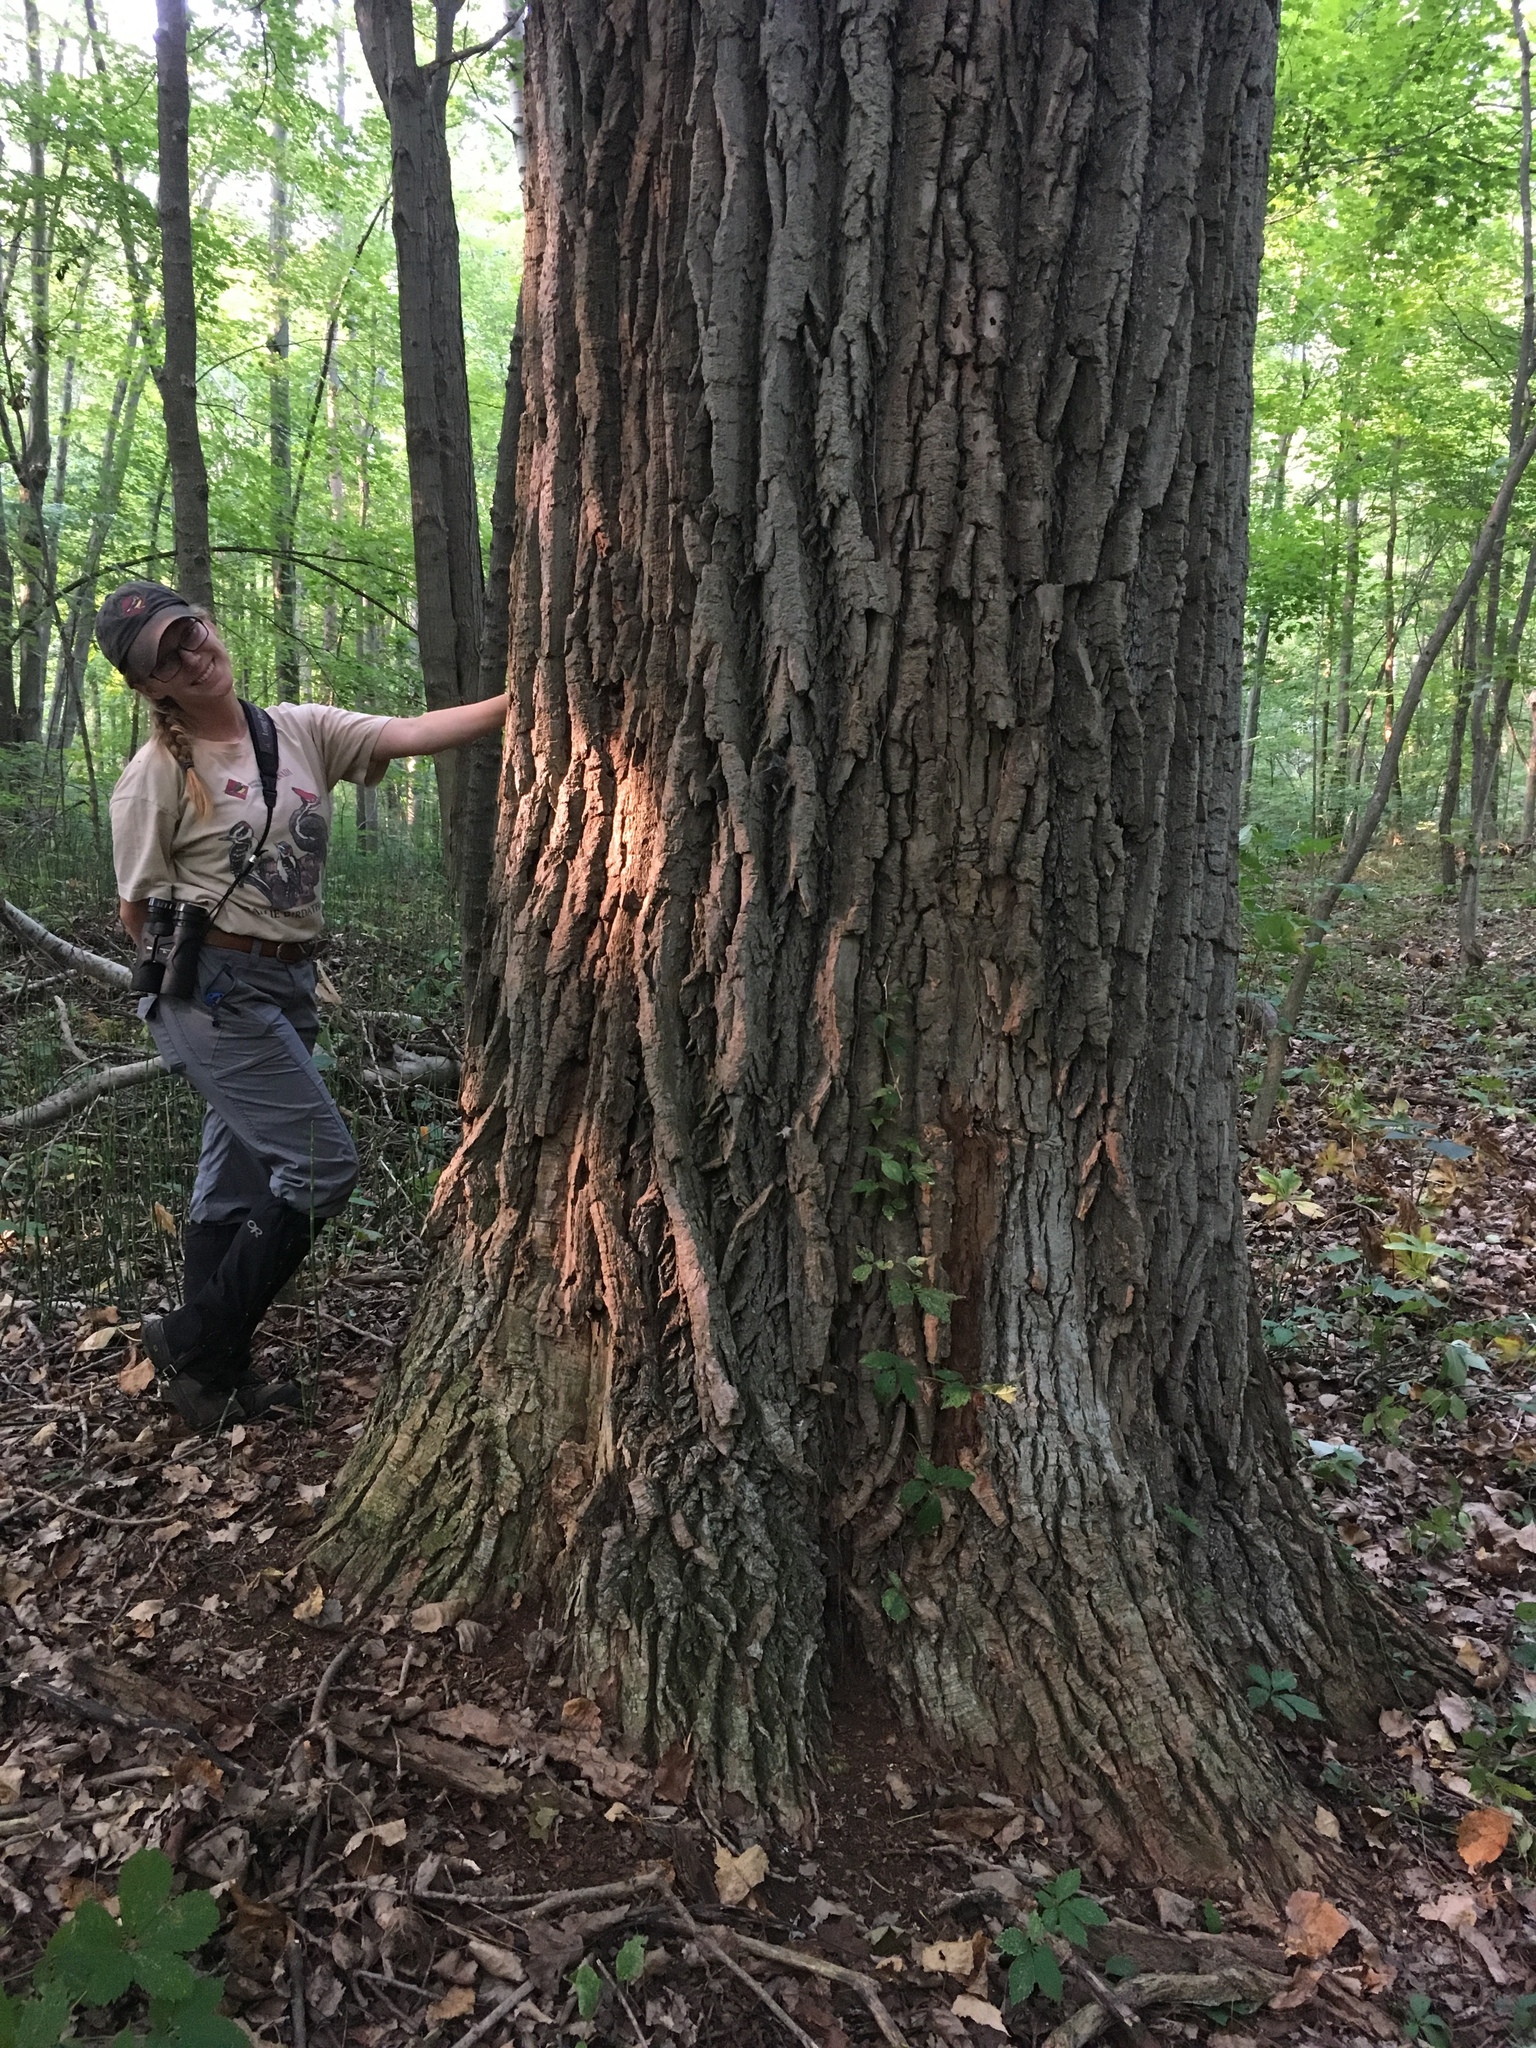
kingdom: Plantae
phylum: Tracheophyta
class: Magnoliopsida
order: Malpighiales
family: Salicaceae
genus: Populus
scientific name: Populus deltoides
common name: Eastern cottonwood
